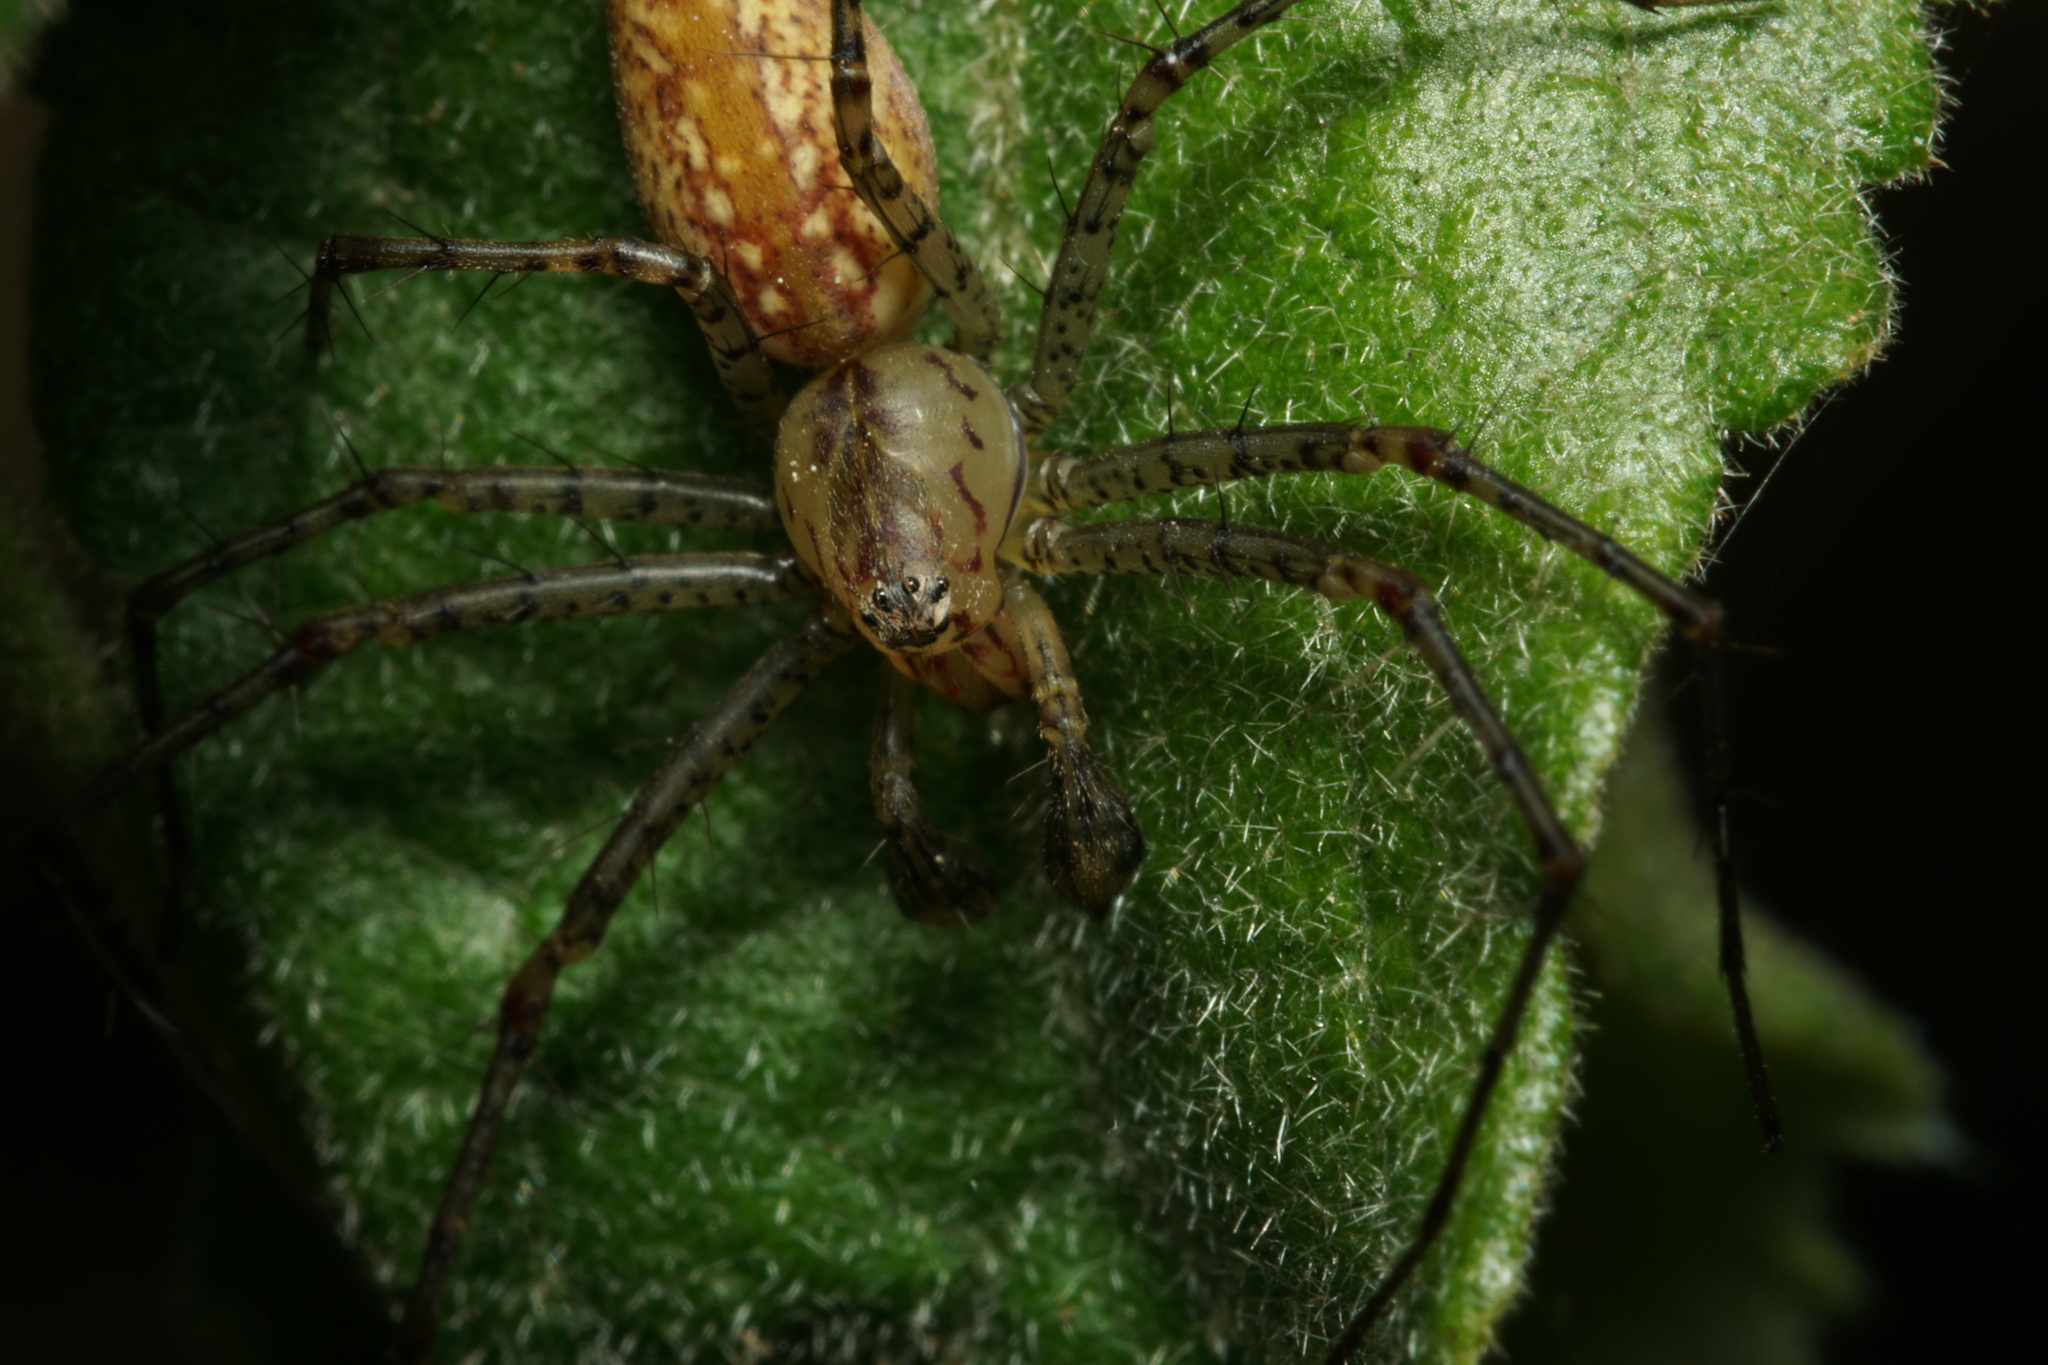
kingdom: Animalia
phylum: Arthropoda
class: Arachnida
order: Araneae
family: Oxyopidae
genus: Peucetia
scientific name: Peucetia flava
